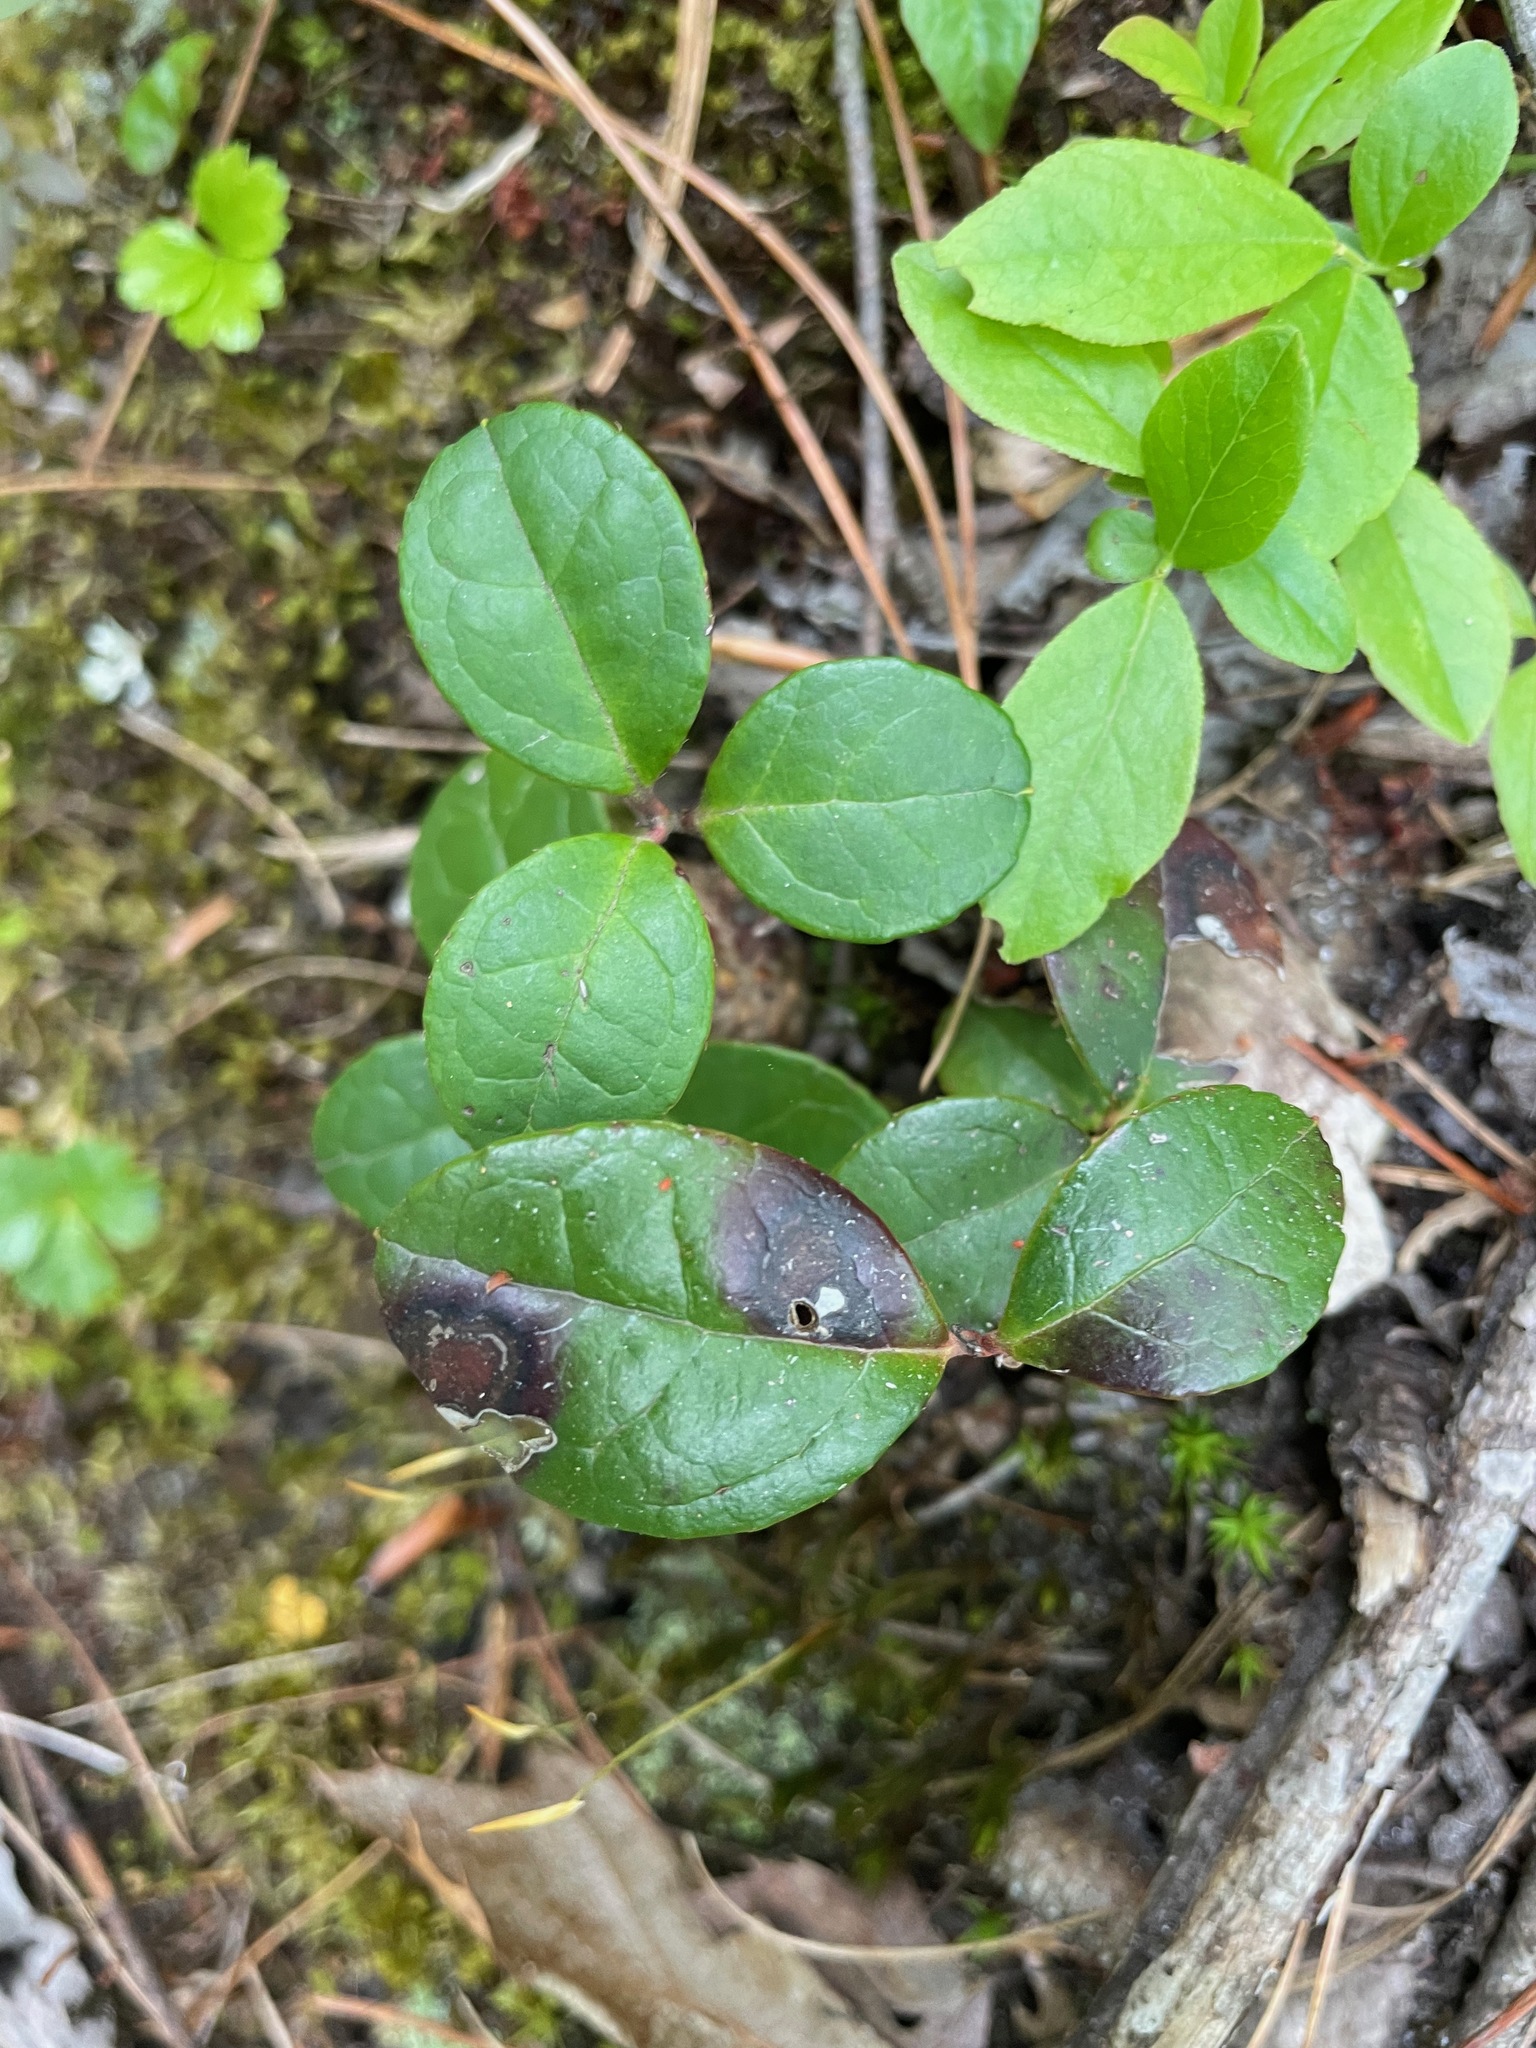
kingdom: Plantae
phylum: Tracheophyta
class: Magnoliopsida
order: Ericales
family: Ericaceae
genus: Gaultheria
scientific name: Gaultheria procumbens
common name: Checkerberry
